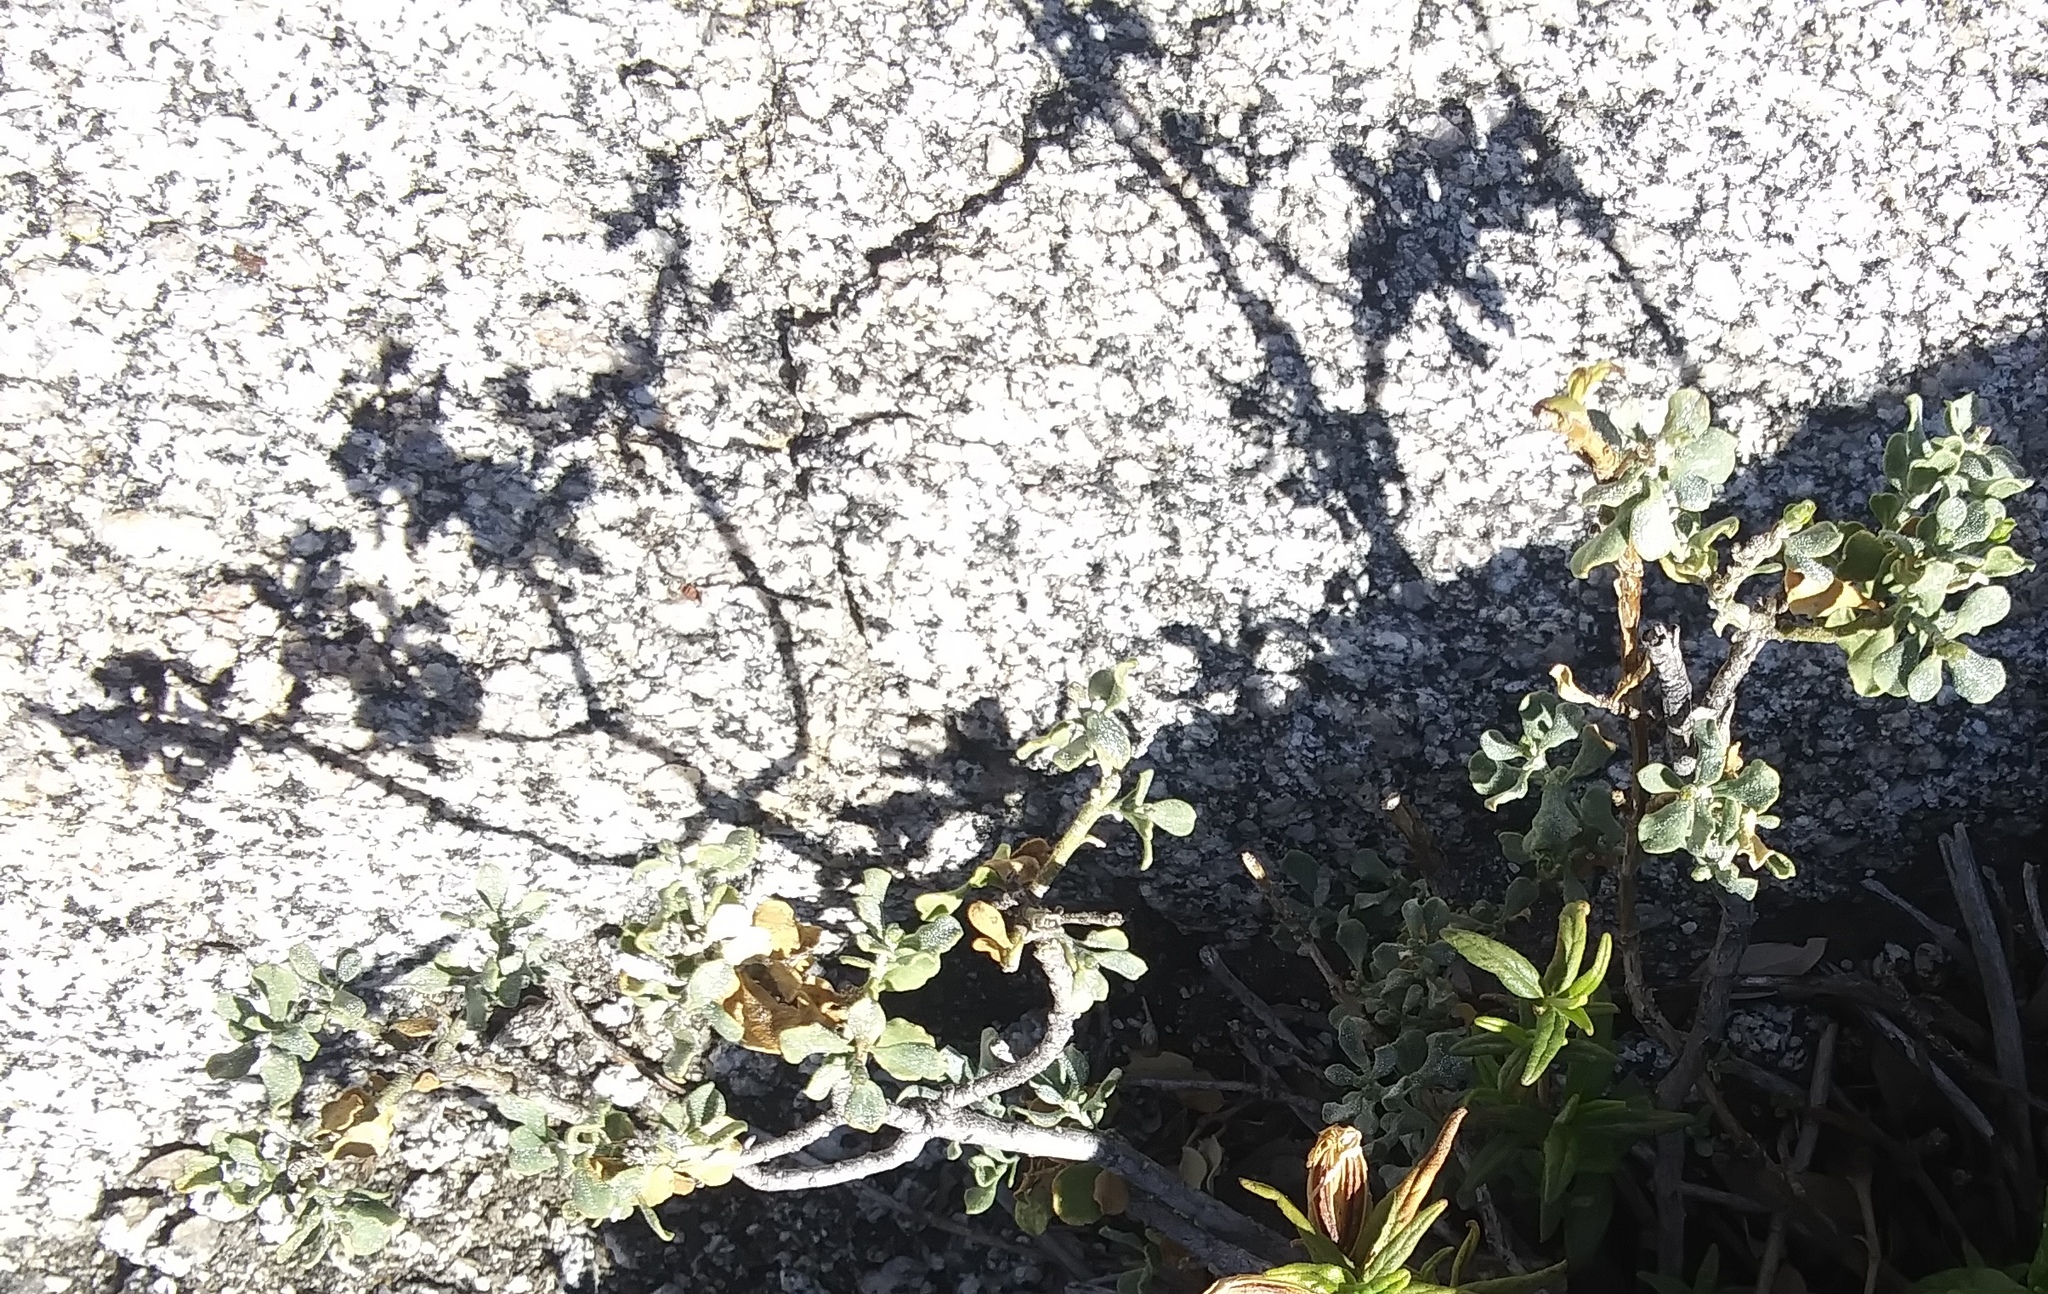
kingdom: Plantae
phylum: Tracheophyta
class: Magnoliopsida
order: Asterales
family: Asteraceae
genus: Ericameria
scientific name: Ericameria cuneata
